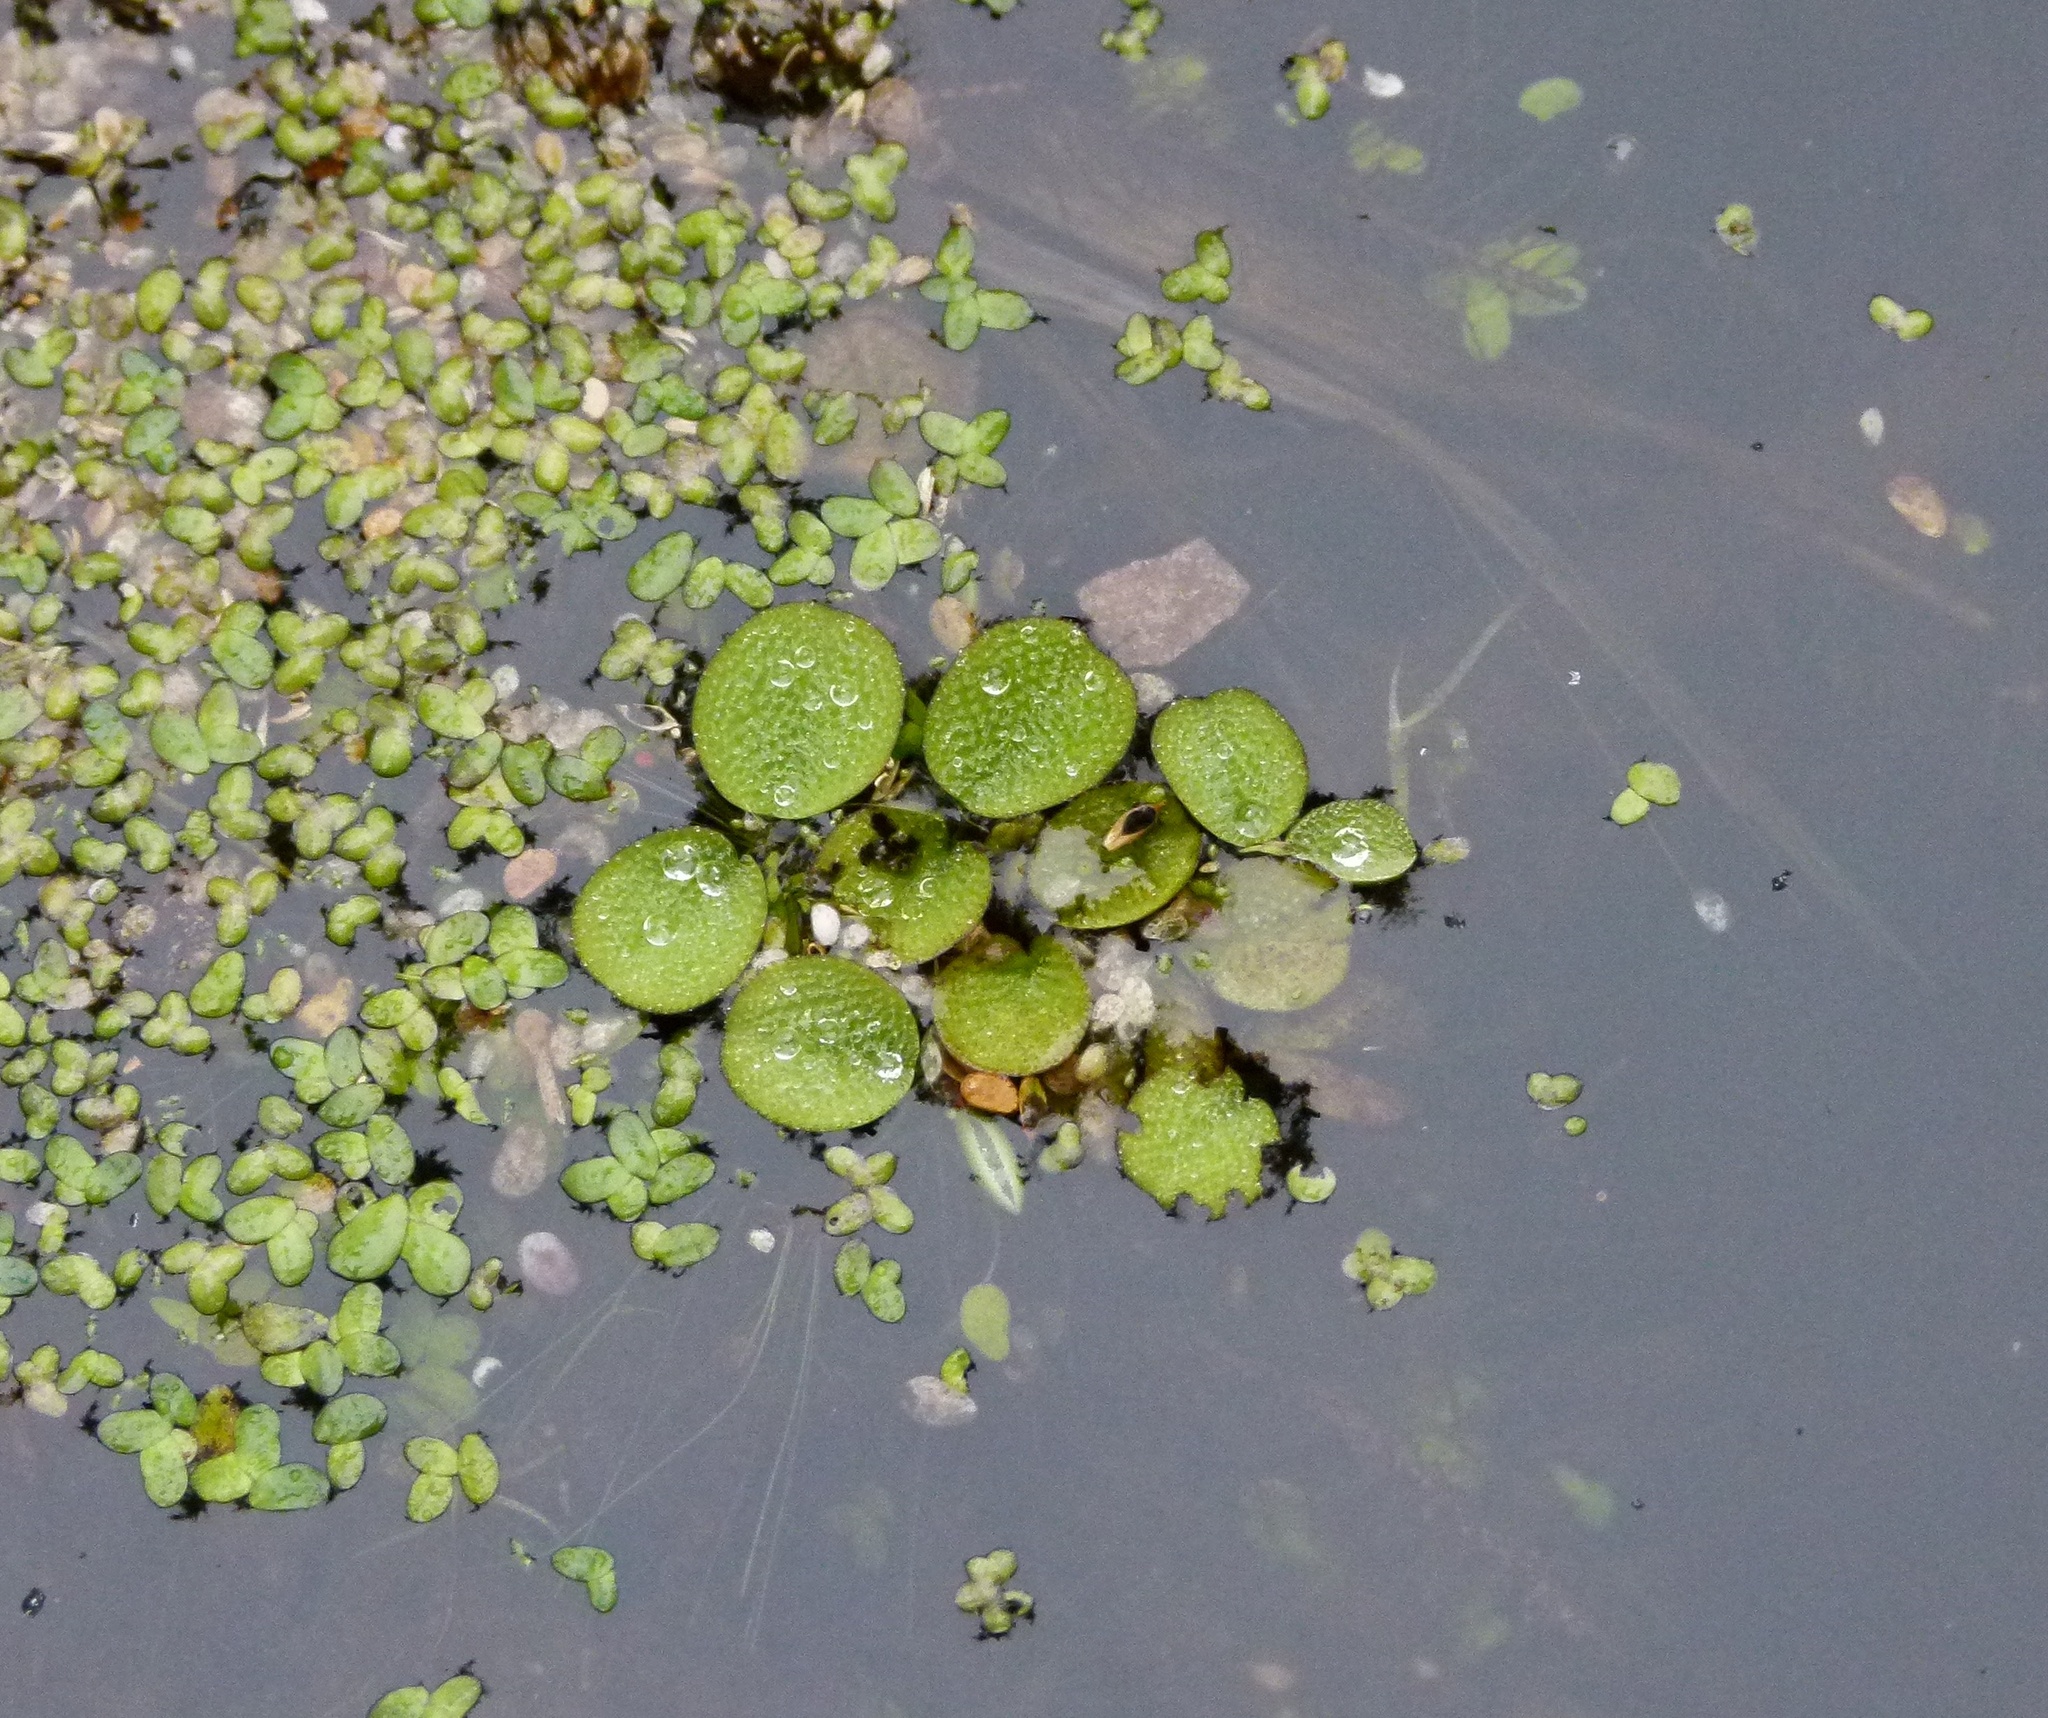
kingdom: Plantae
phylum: Tracheophyta
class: Polypodiopsida
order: Salviniales
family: Salviniaceae
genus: Salvinia
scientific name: Salvinia minima
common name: Water spangles
